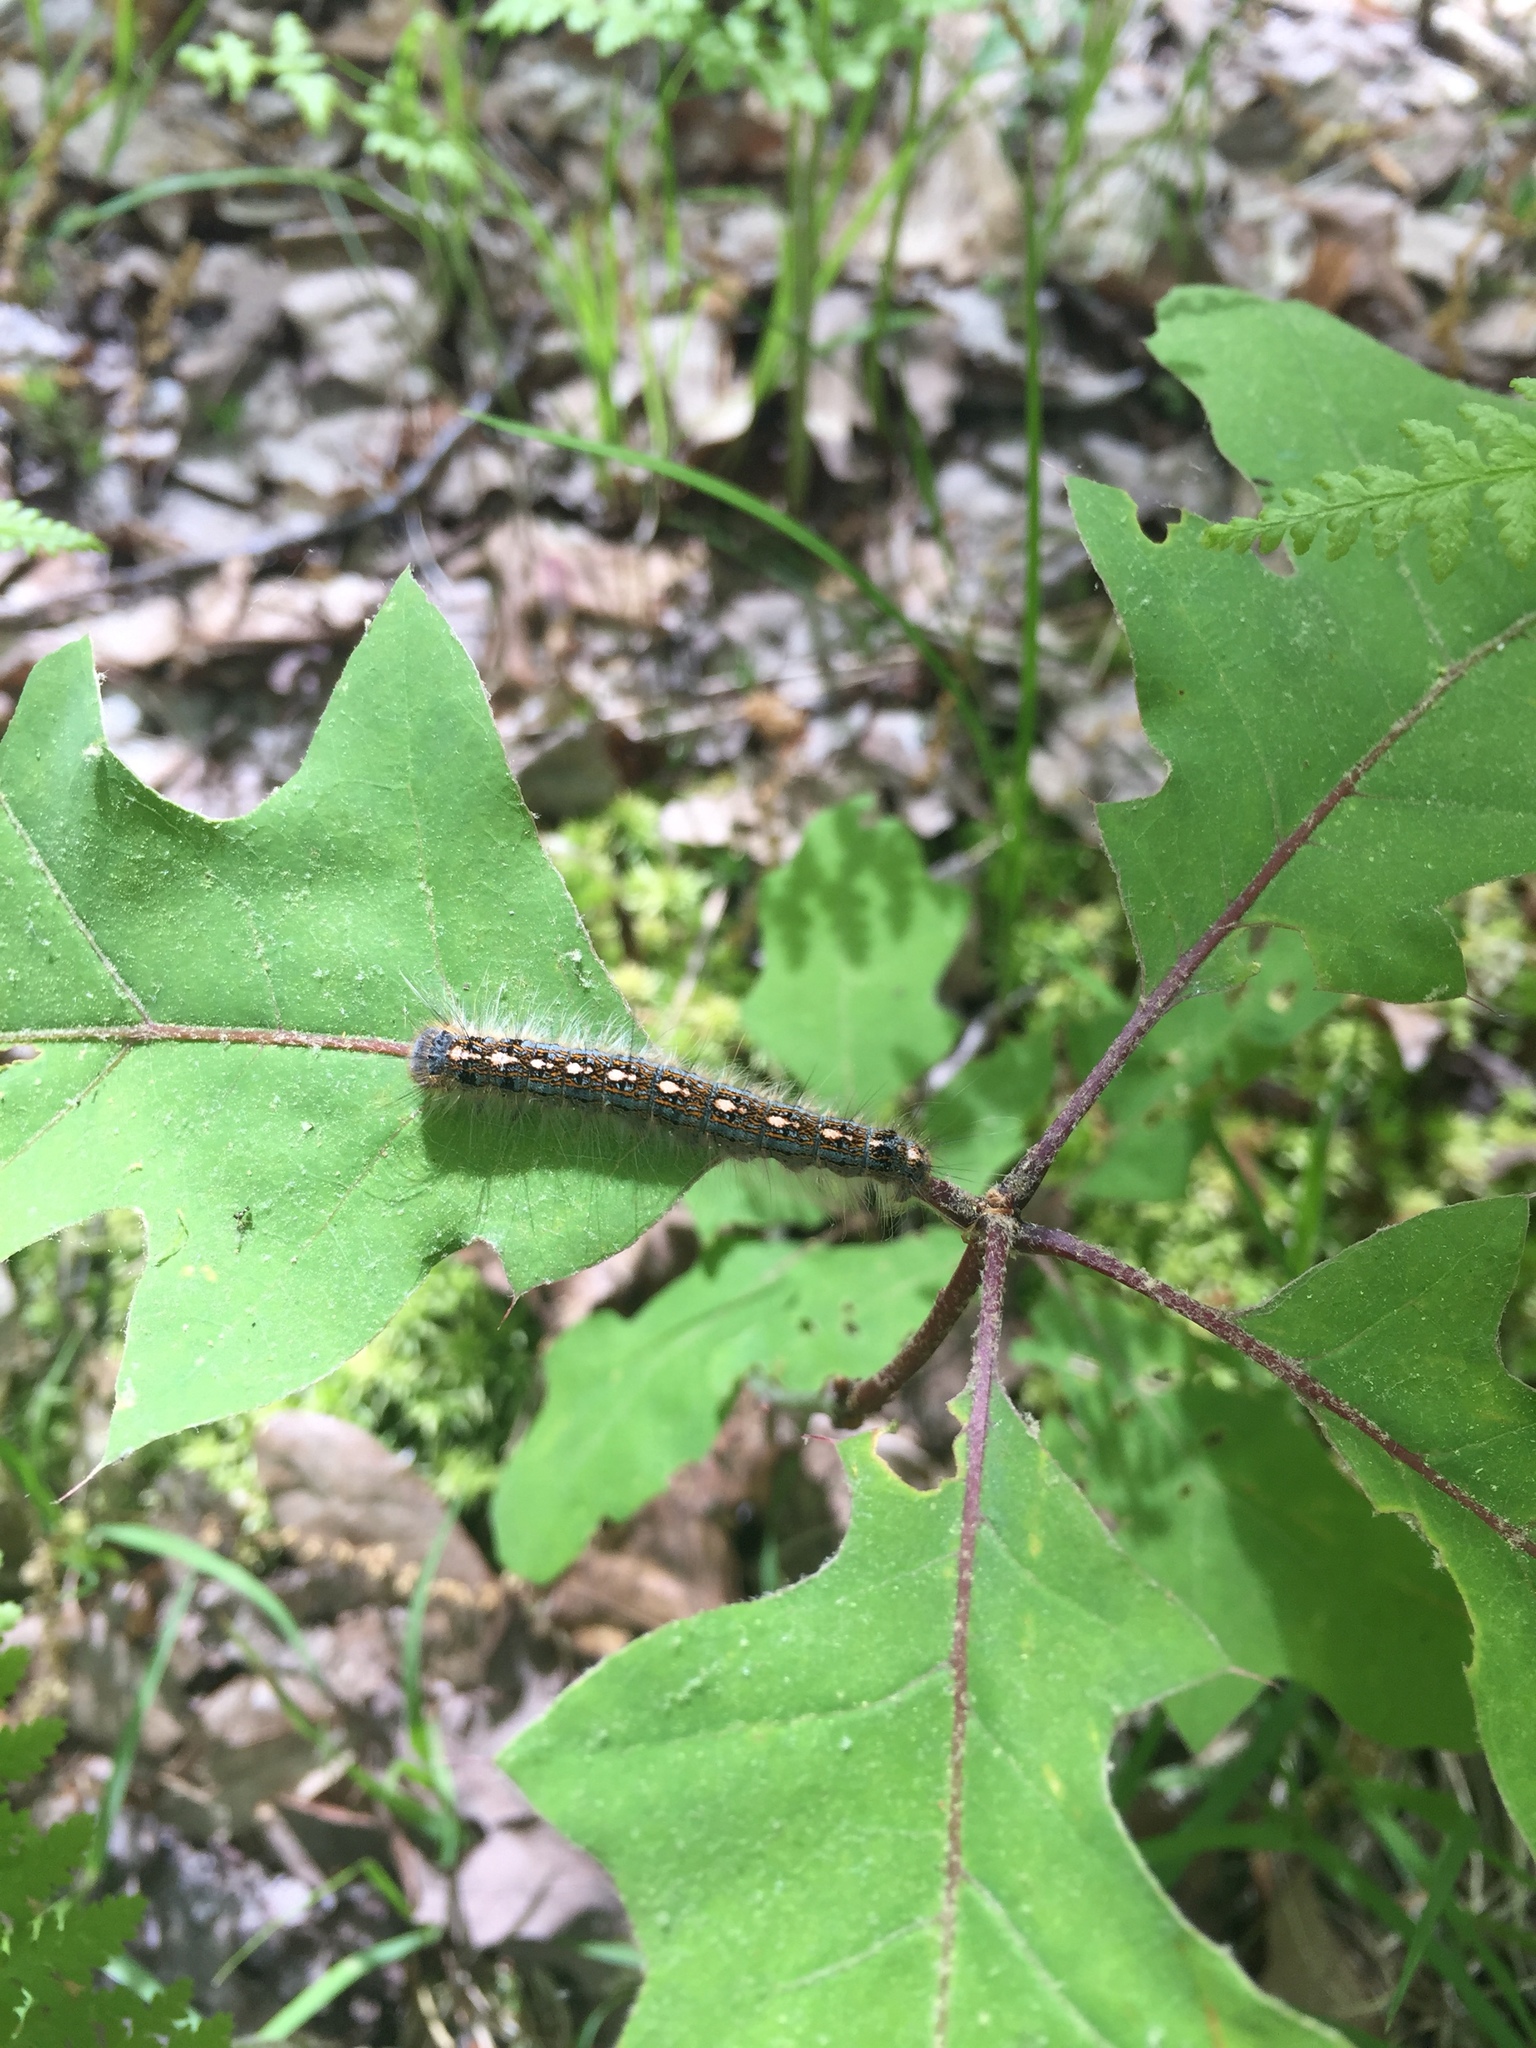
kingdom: Animalia
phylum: Arthropoda
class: Insecta
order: Lepidoptera
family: Lasiocampidae
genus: Malacosoma
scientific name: Malacosoma disstria
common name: Forest tent caterpillar
